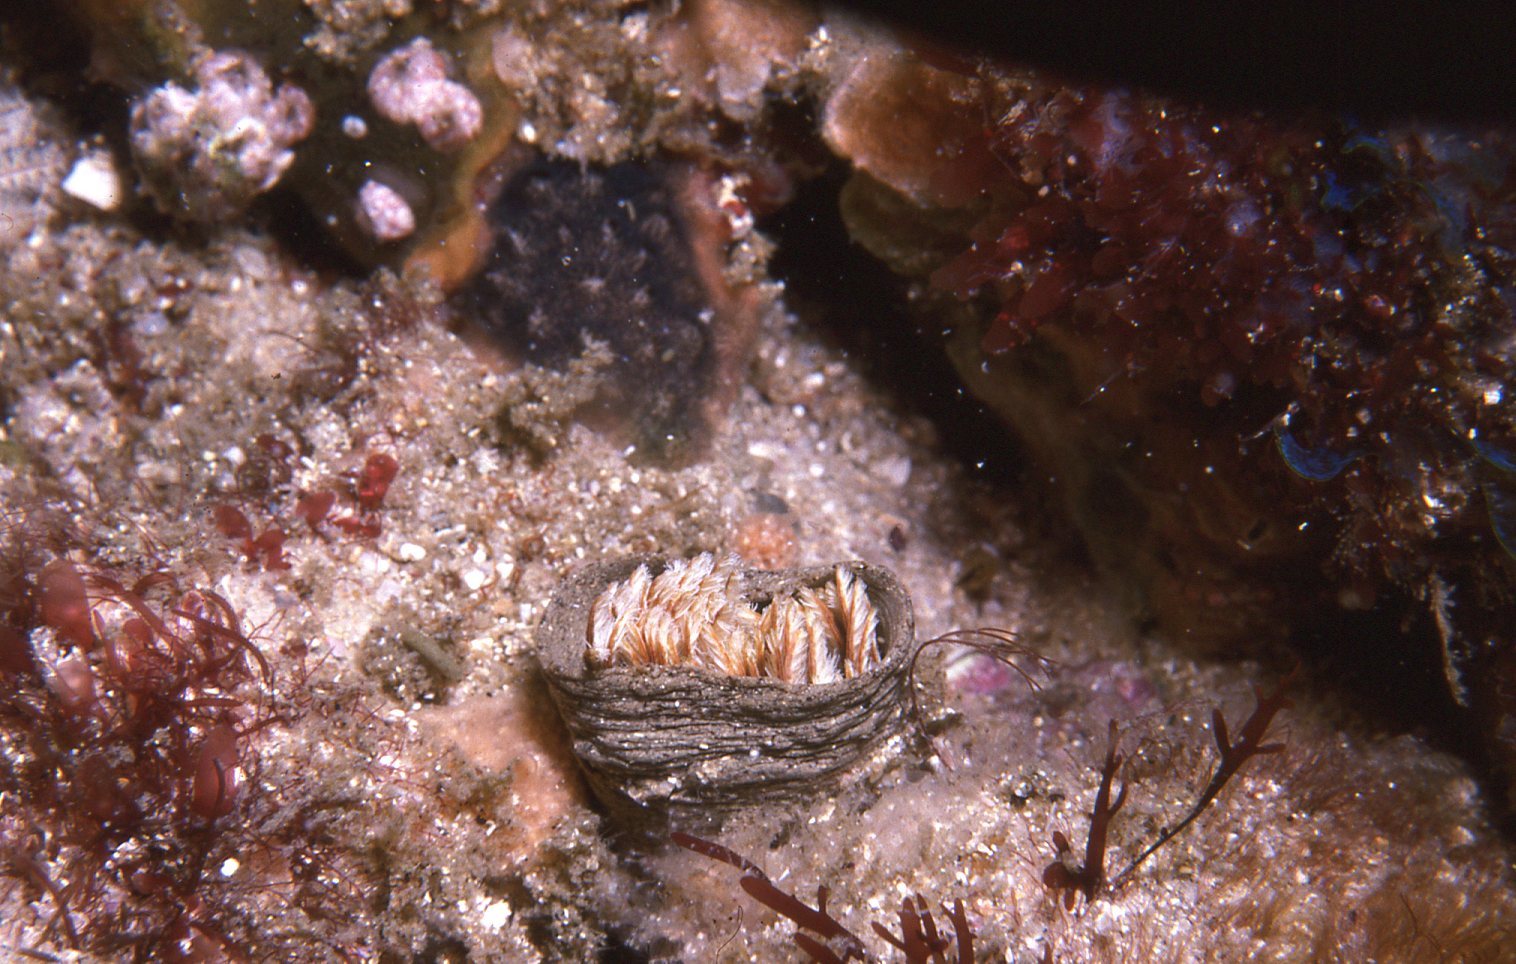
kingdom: Animalia
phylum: Annelida
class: Polychaeta
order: Sabellida
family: Sabellidae
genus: Sabellastarte
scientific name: Sabellastarte australiensis
